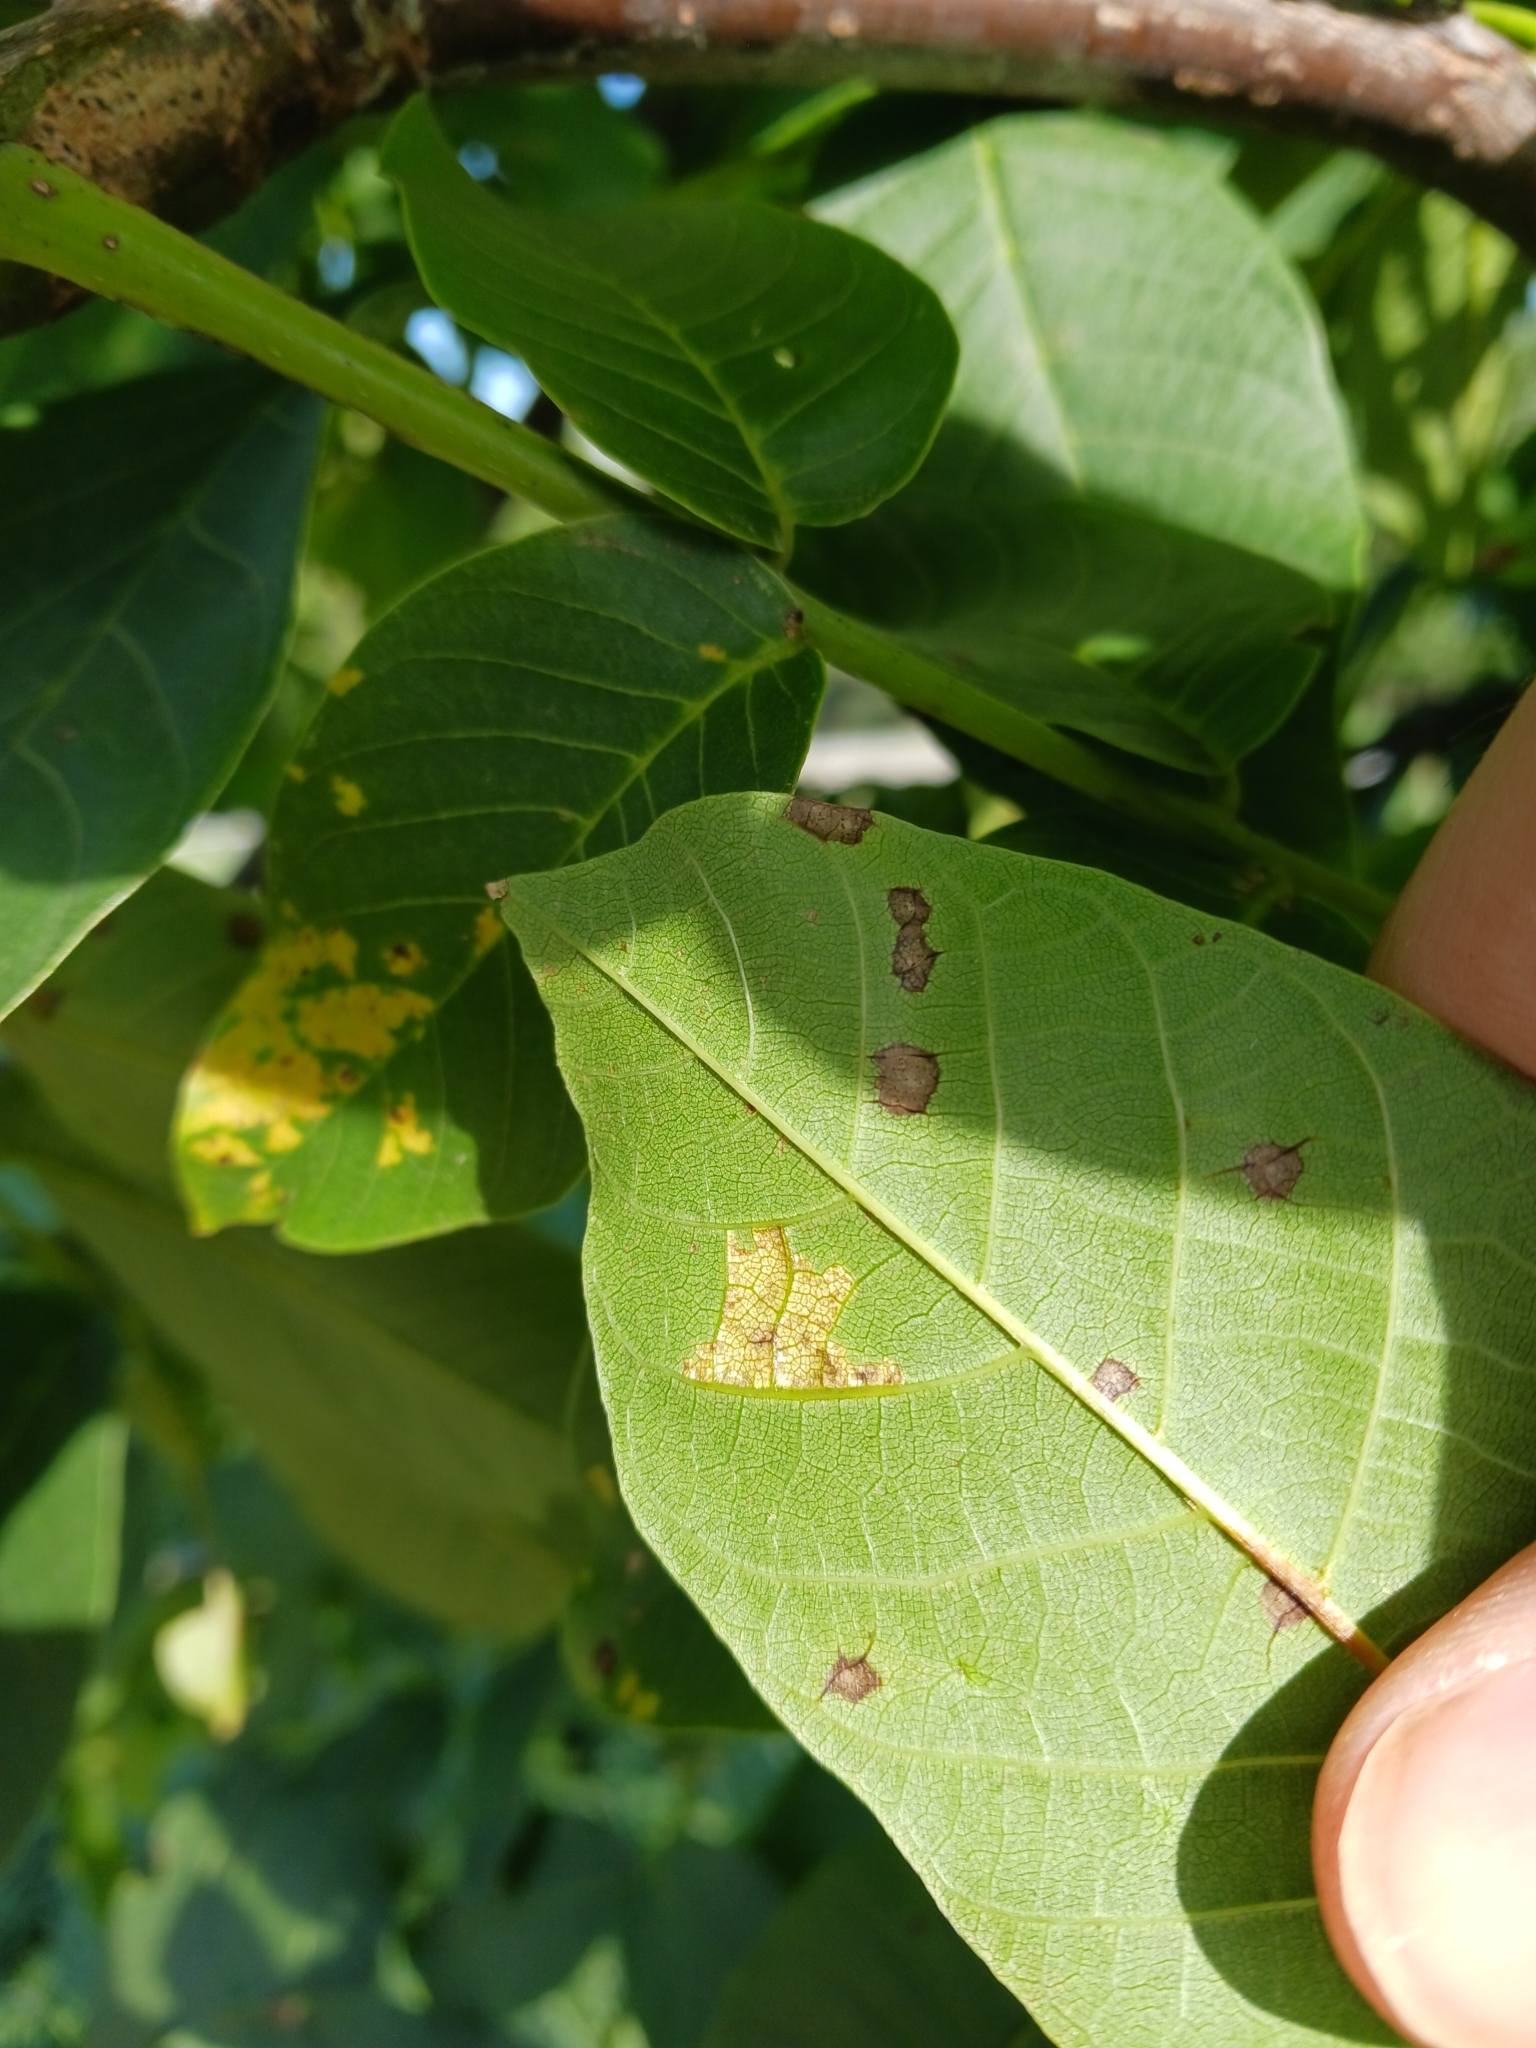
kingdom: Fungi
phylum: Basidiomycota
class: Exobasidiomycetes
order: Microstromatales
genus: Pseudomicrostroma
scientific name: Pseudomicrostroma juglandis
